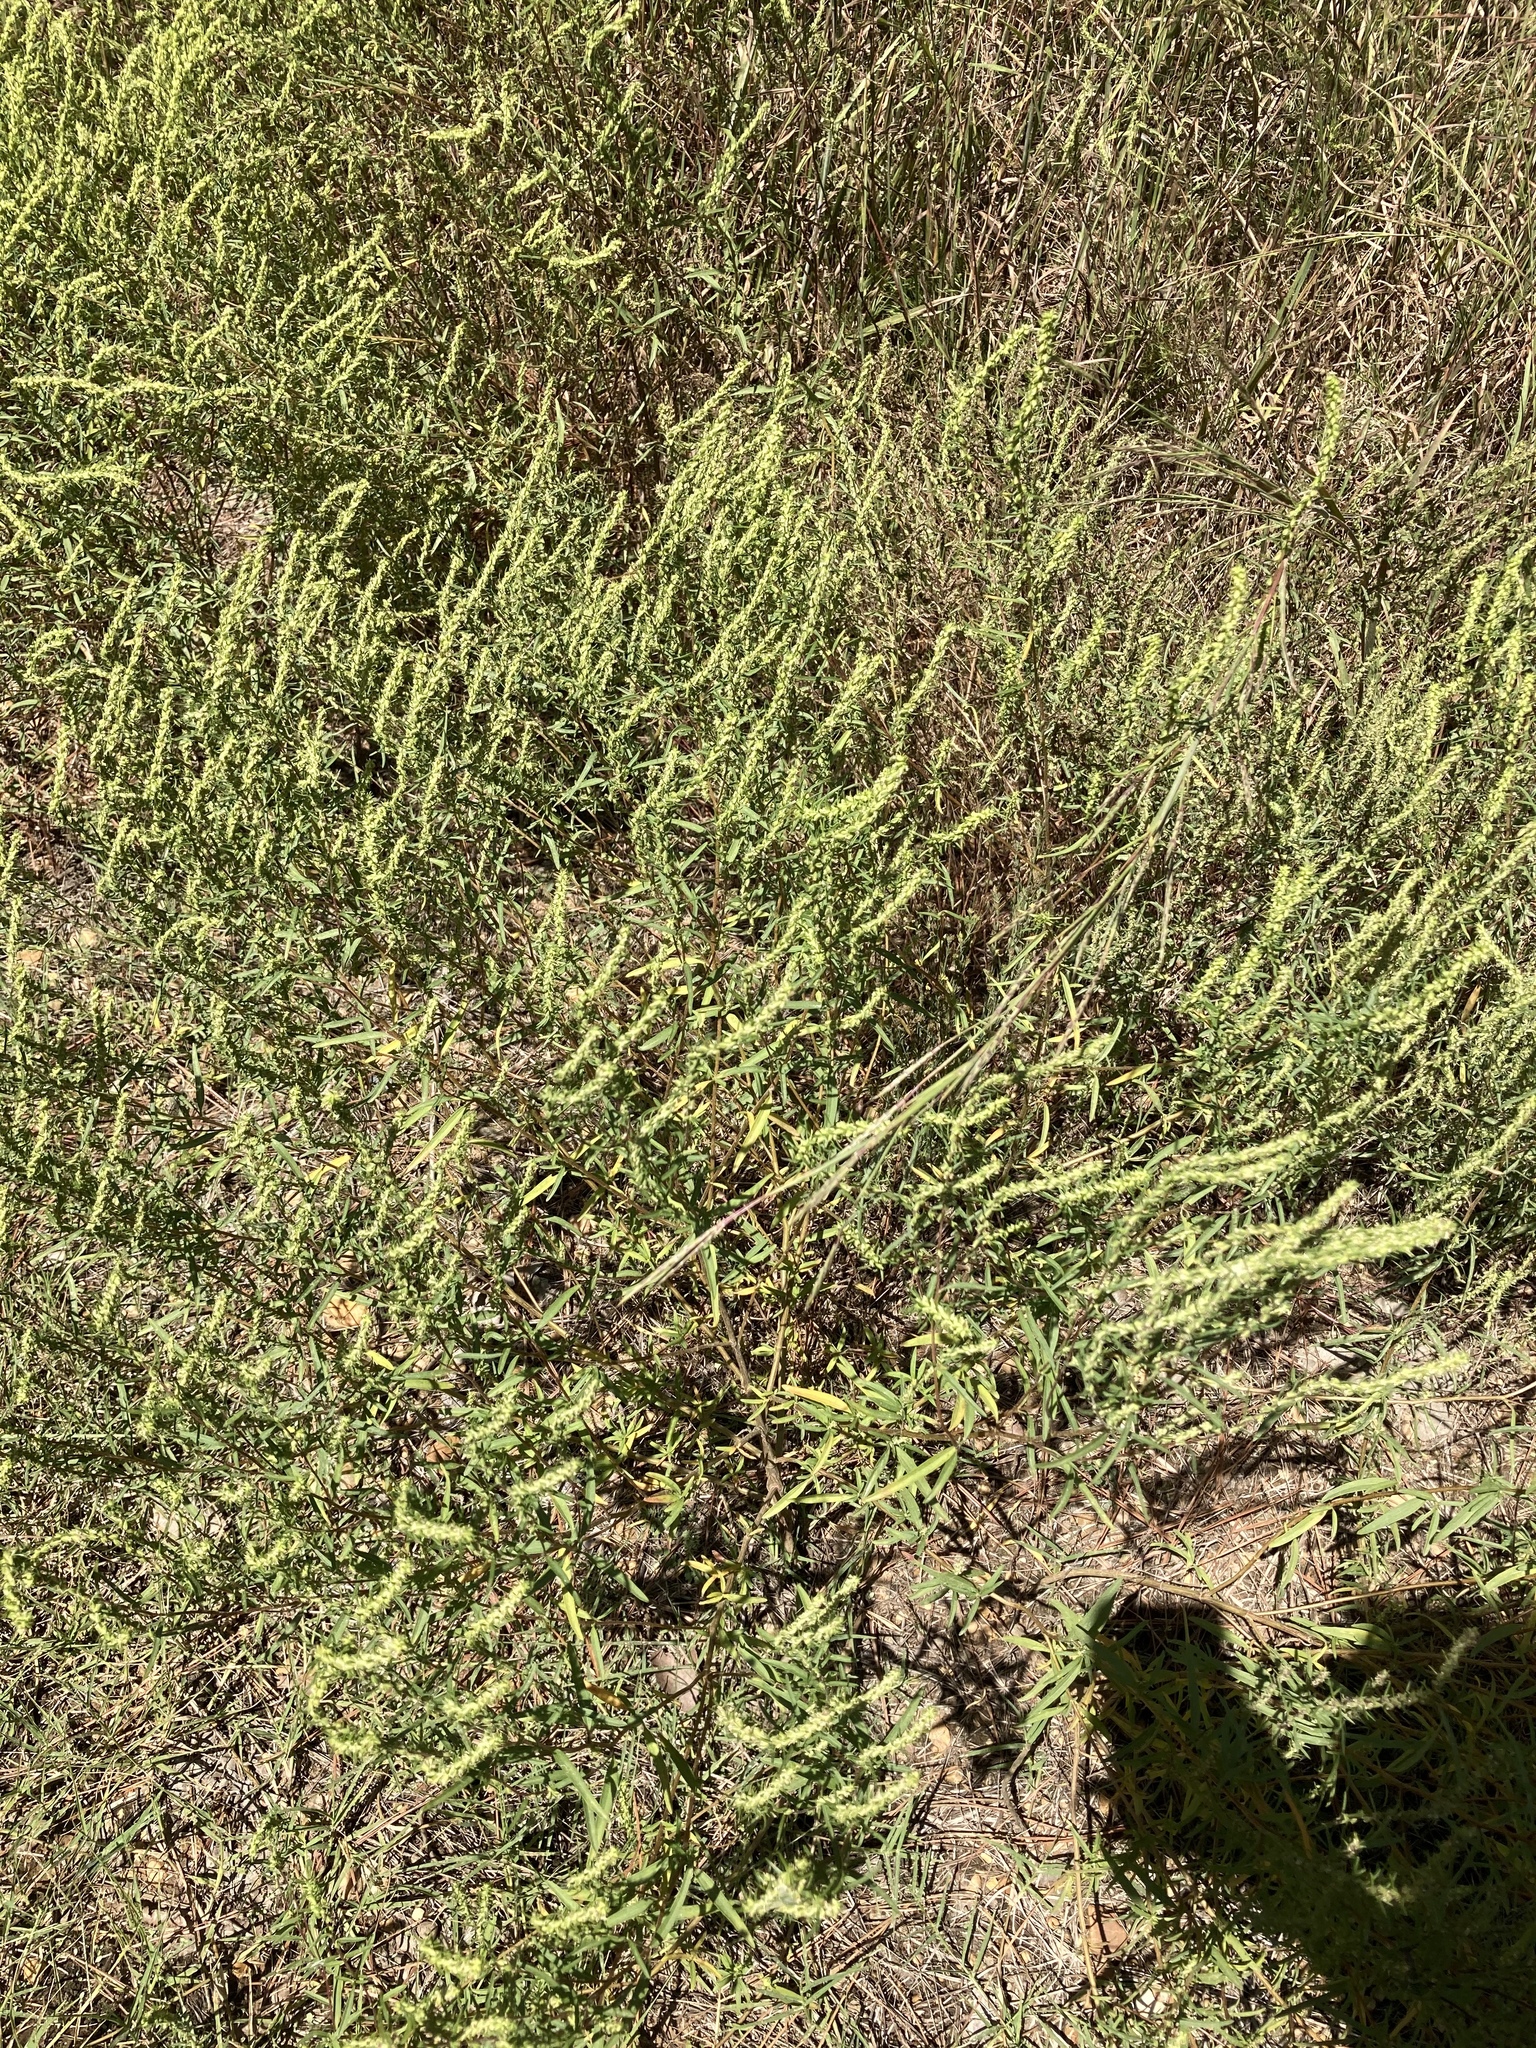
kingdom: Plantae
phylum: Tracheophyta
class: Magnoliopsida
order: Asterales
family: Asteraceae
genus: Iva
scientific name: Iva asperifolia
